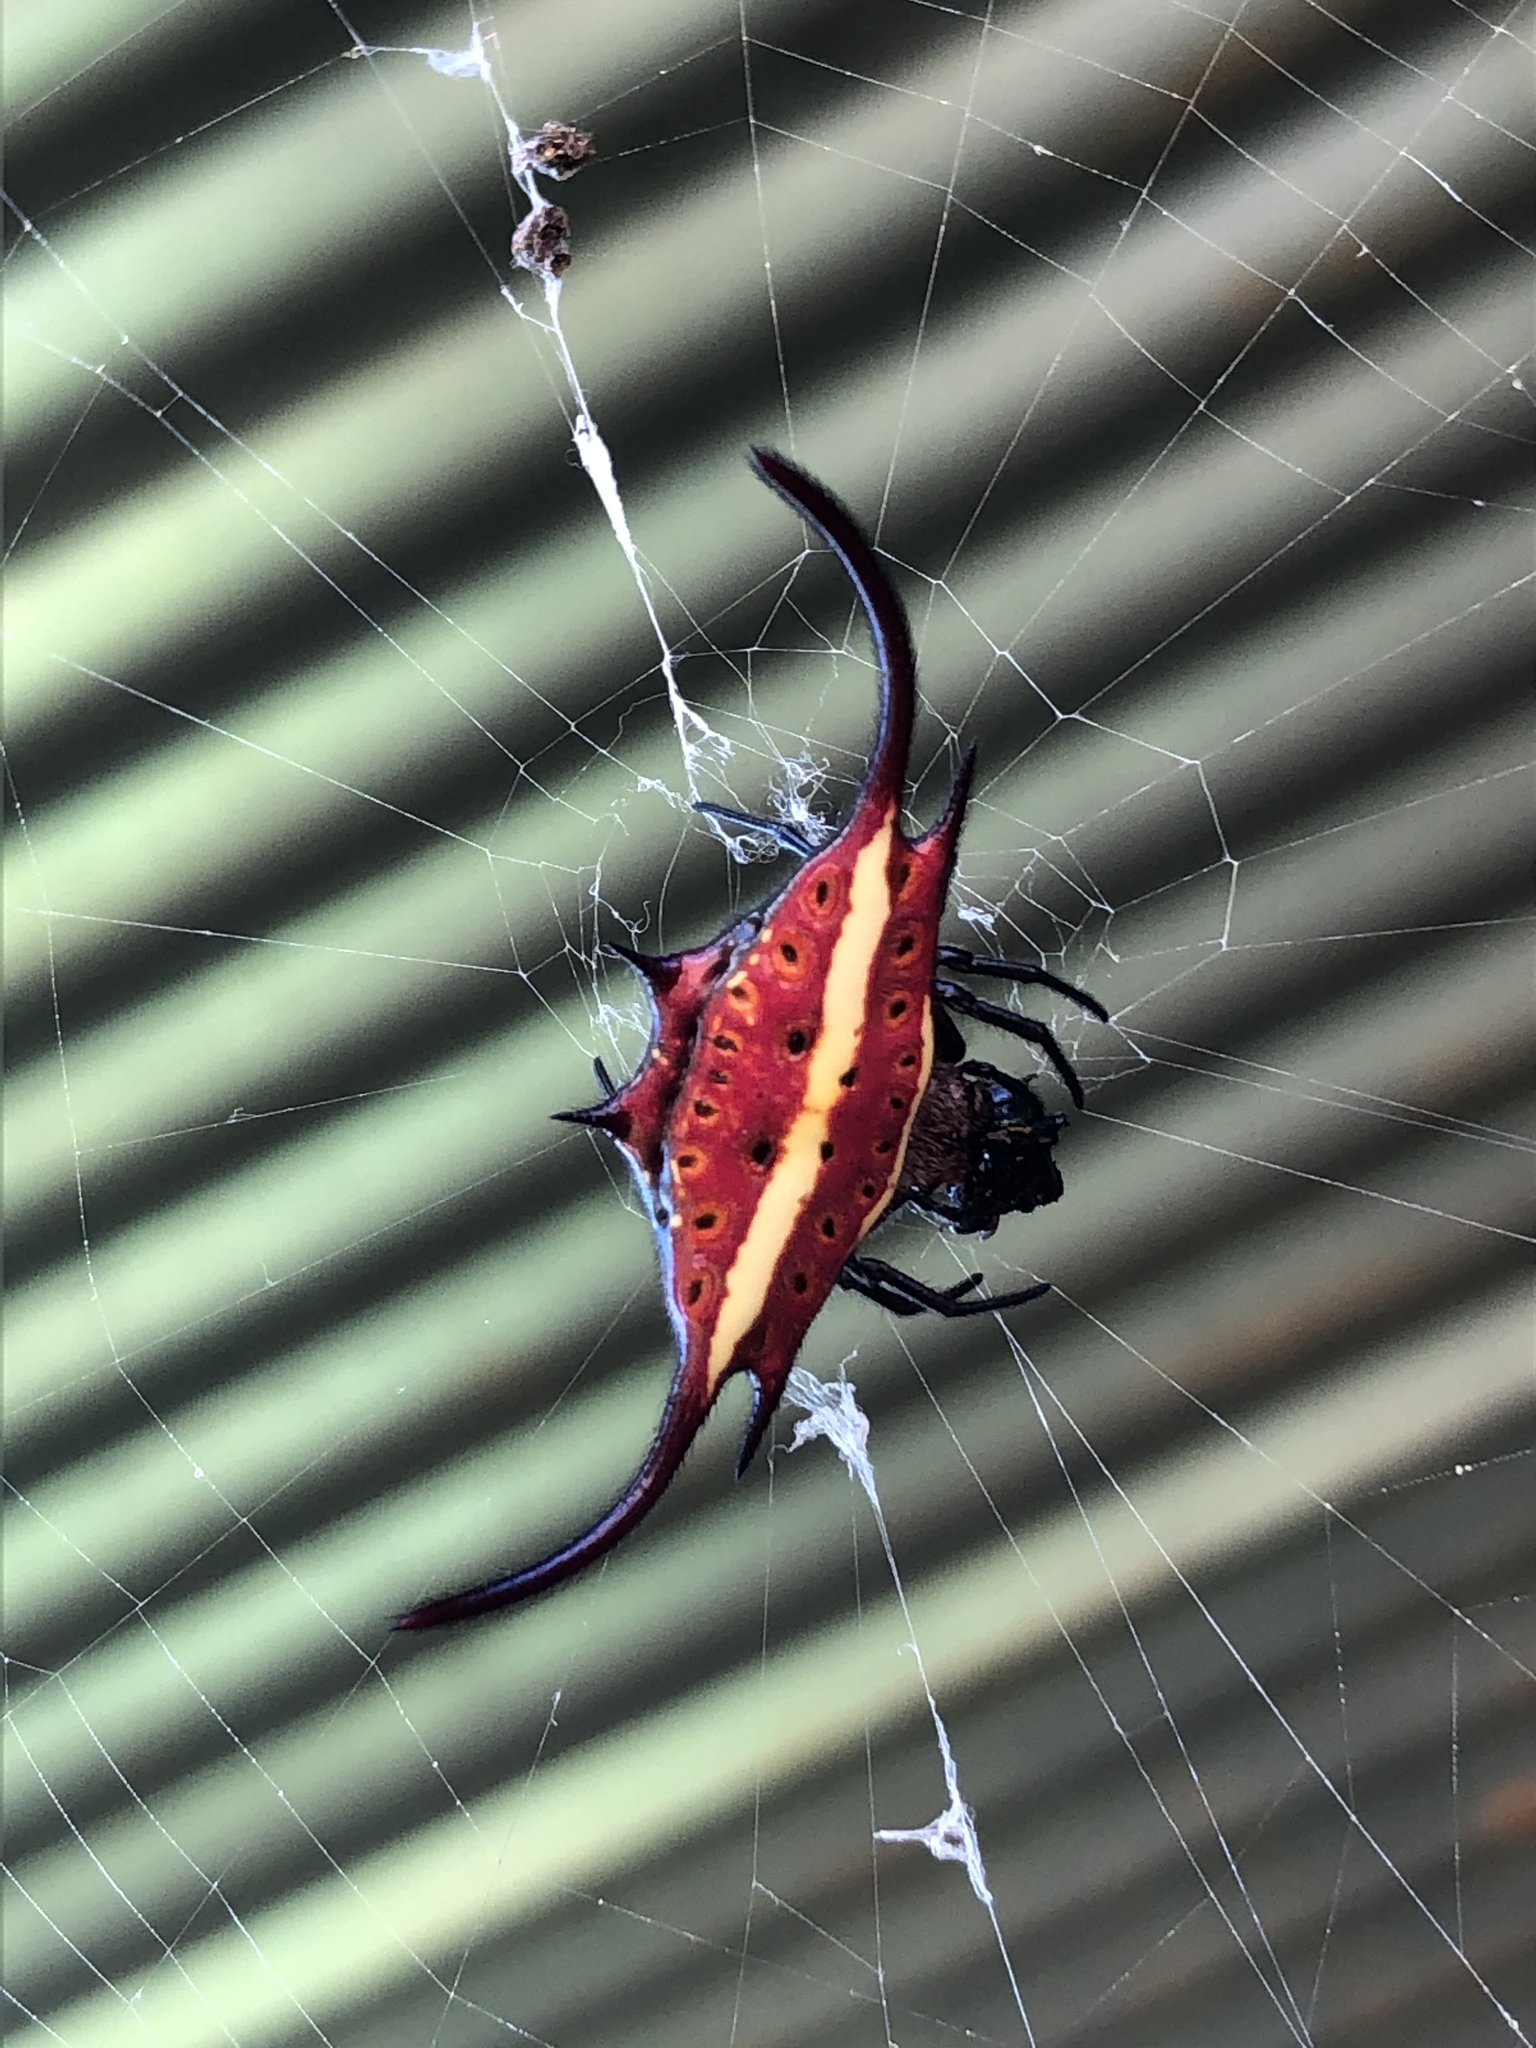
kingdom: Animalia
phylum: Arthropoda
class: Arachnida
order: Araneae
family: Araneidae
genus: Gasteracantha
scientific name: Gasteracantha falcicornis
